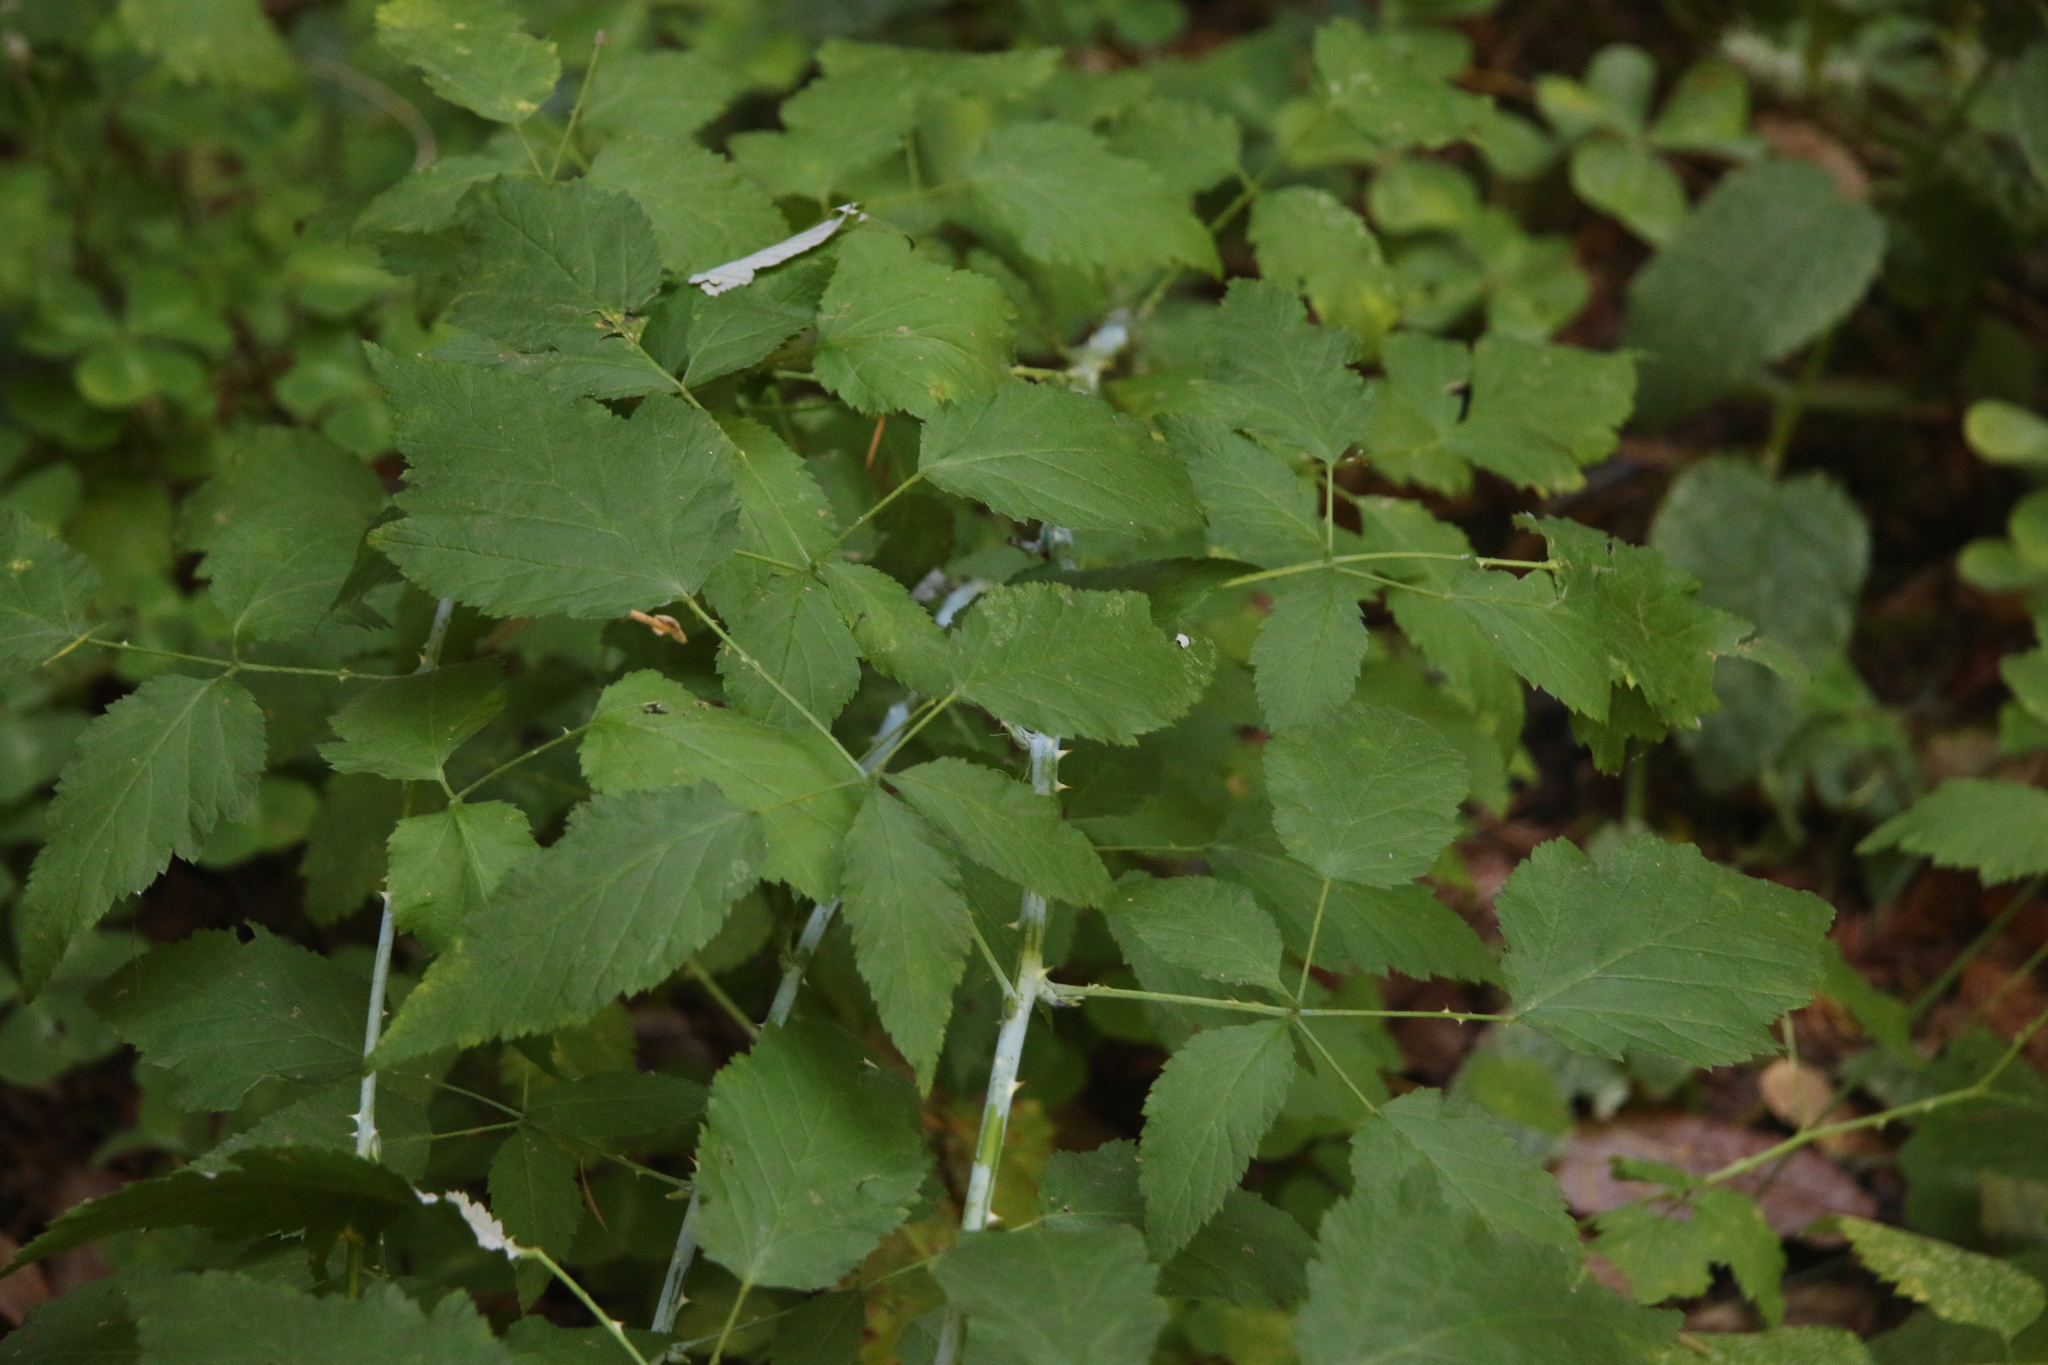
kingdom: Plantae
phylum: Tracheophyta
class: Magnoliopsida
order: Rosales
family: Rosaceae
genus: Rubus
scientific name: Rubus leucodermis
